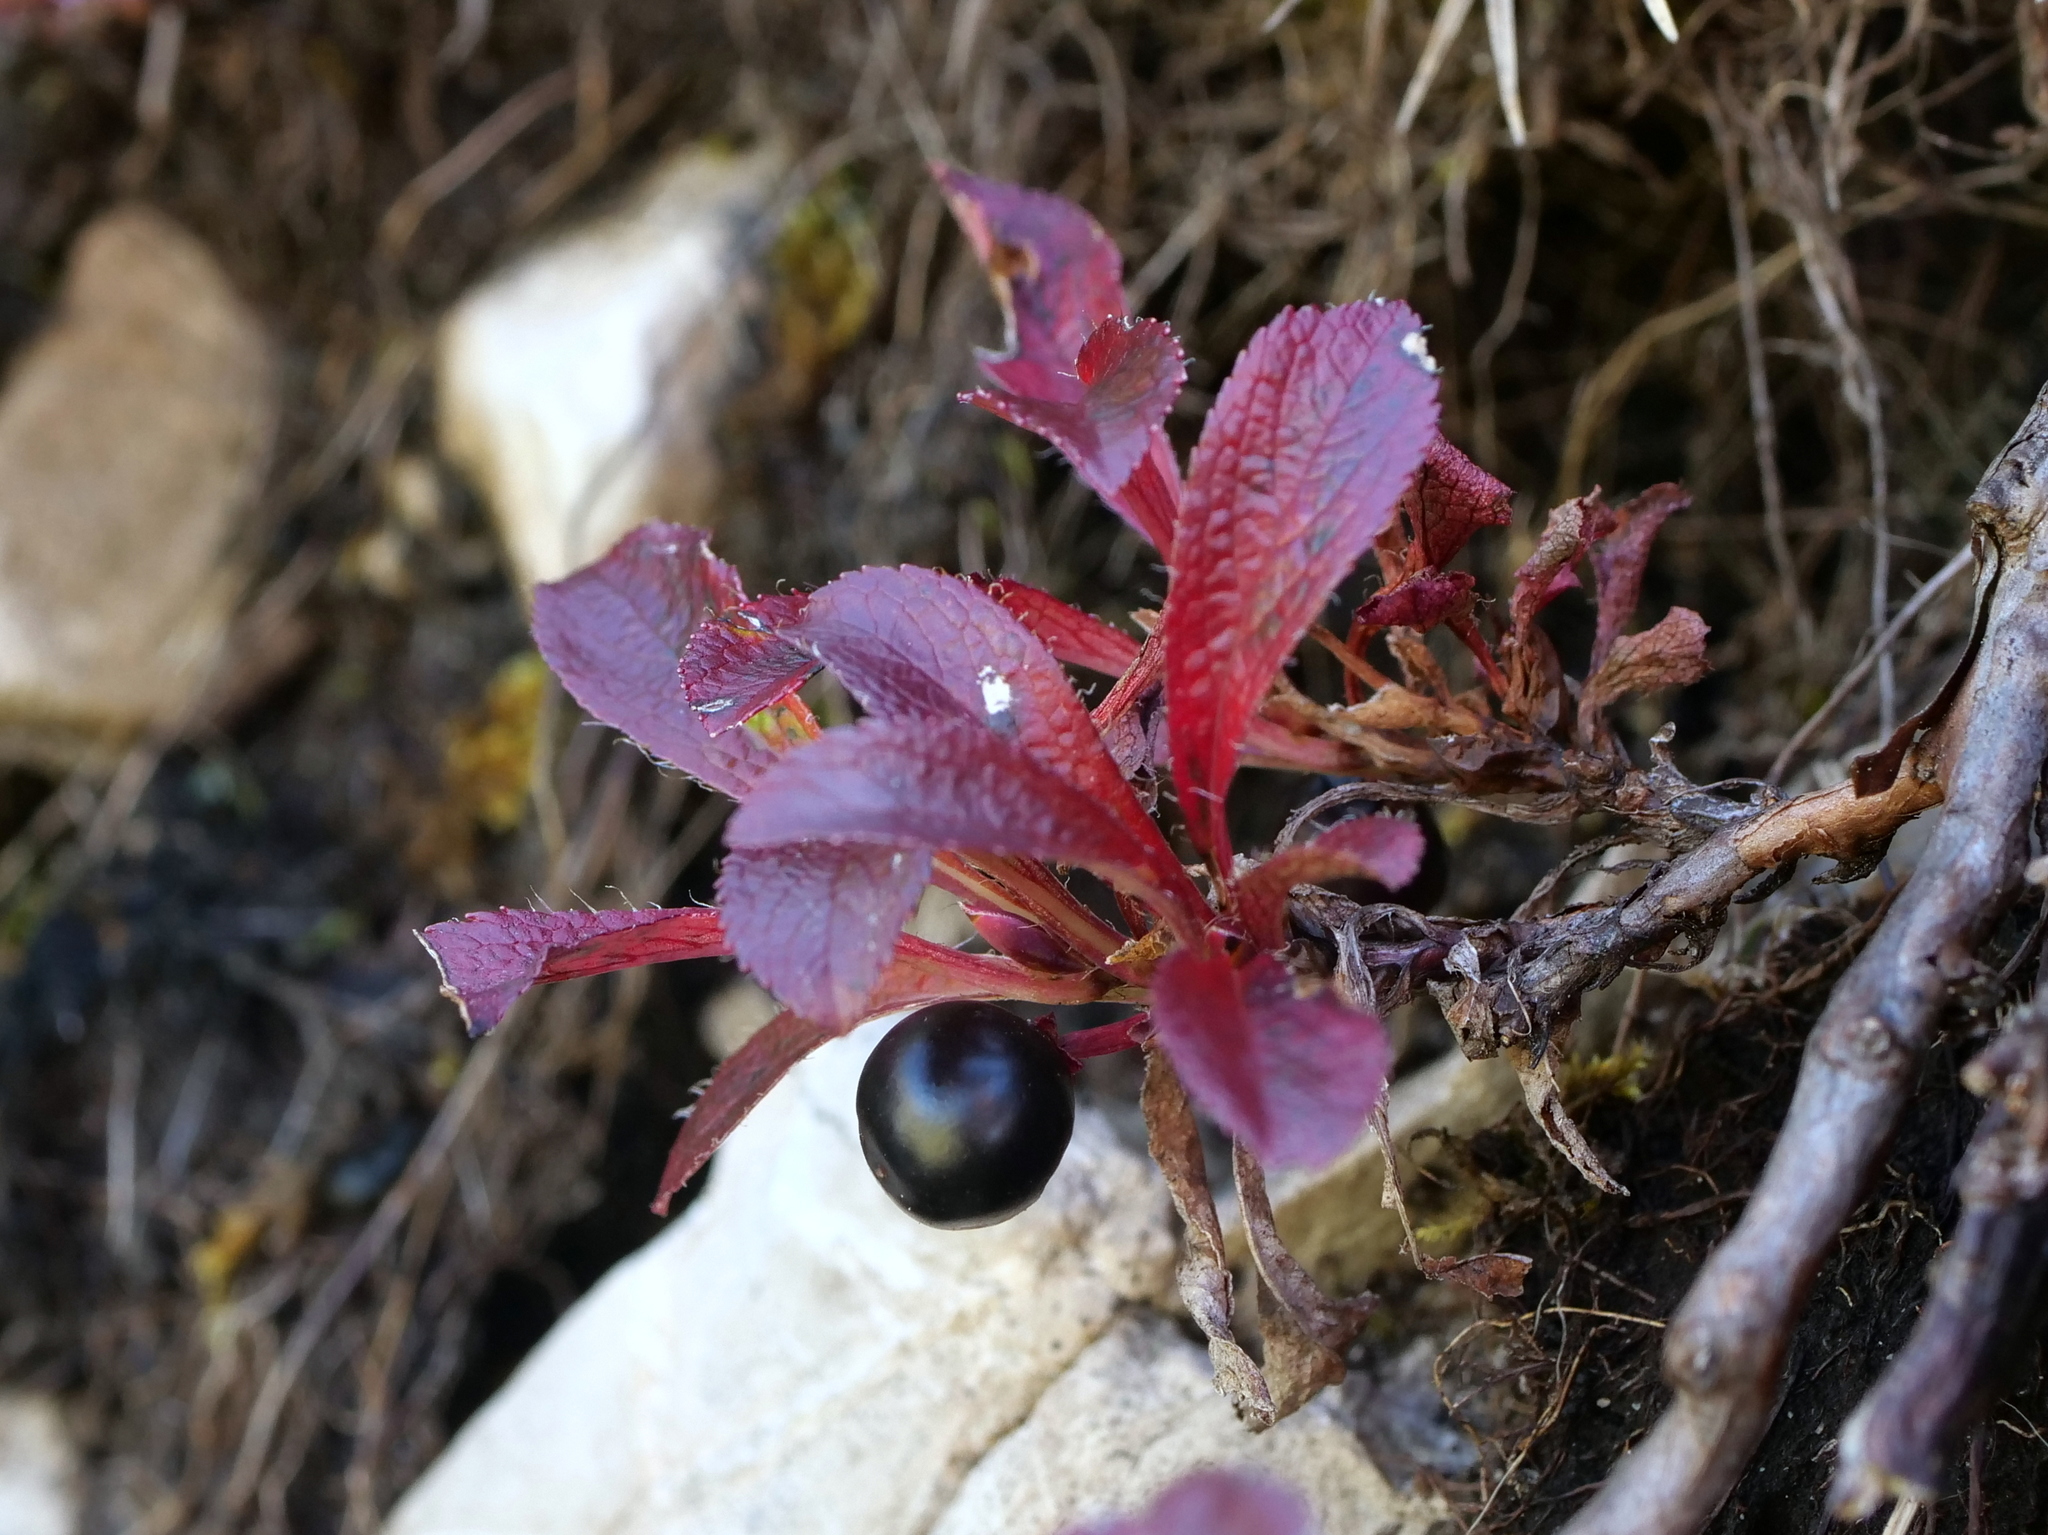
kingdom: Plantae
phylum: Tracheophyta
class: Magnoliopsida
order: Ericales
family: Ericaceae
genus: Arctostaphylos
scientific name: Arctostaphylos alpinus
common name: Alpine bearberry
